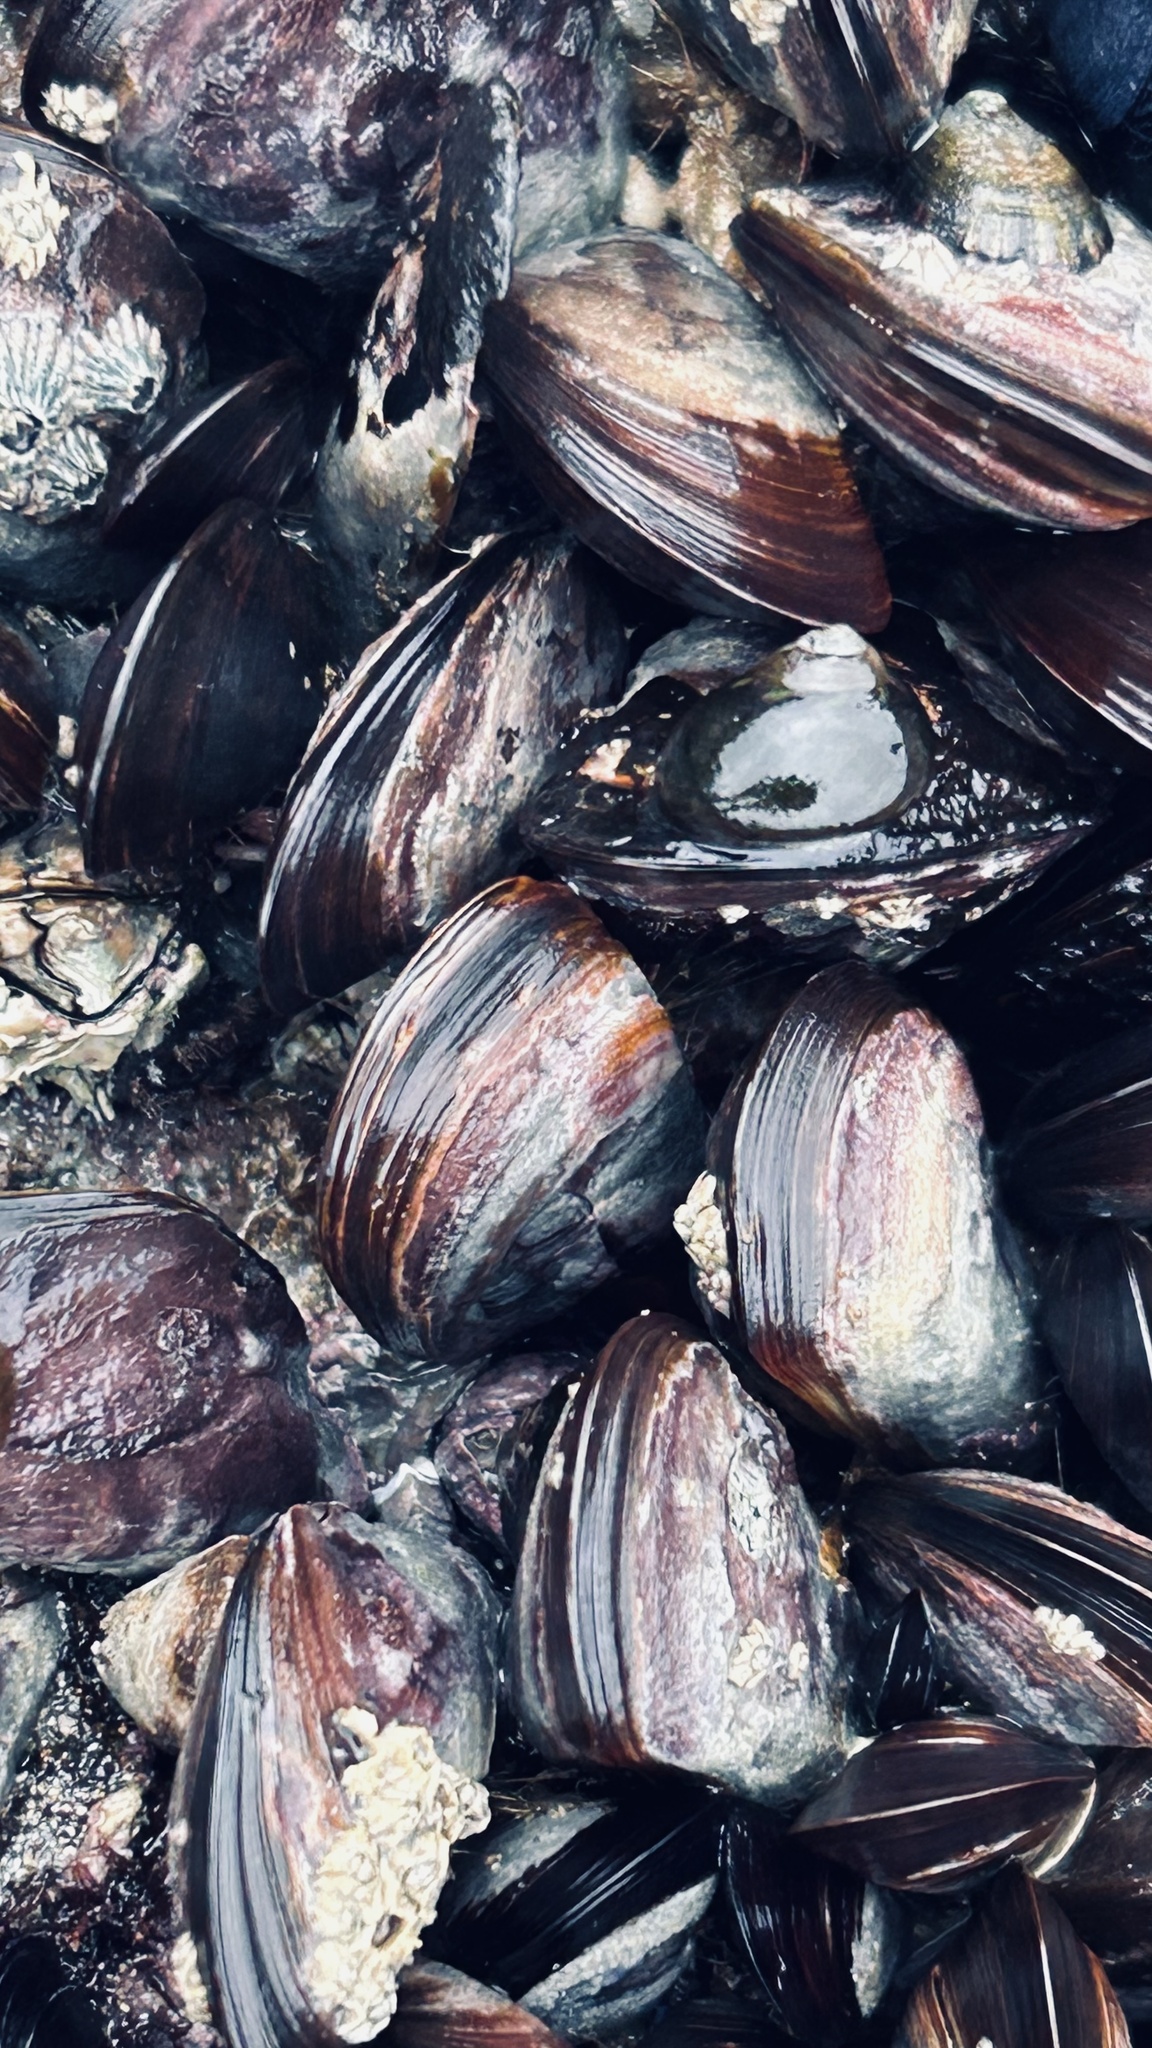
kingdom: Animalia
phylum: Mollusca
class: Bivalvia
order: Mytilida
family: Mytilidae
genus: Perna
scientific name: Perna perna
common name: Mexilhao mussel
